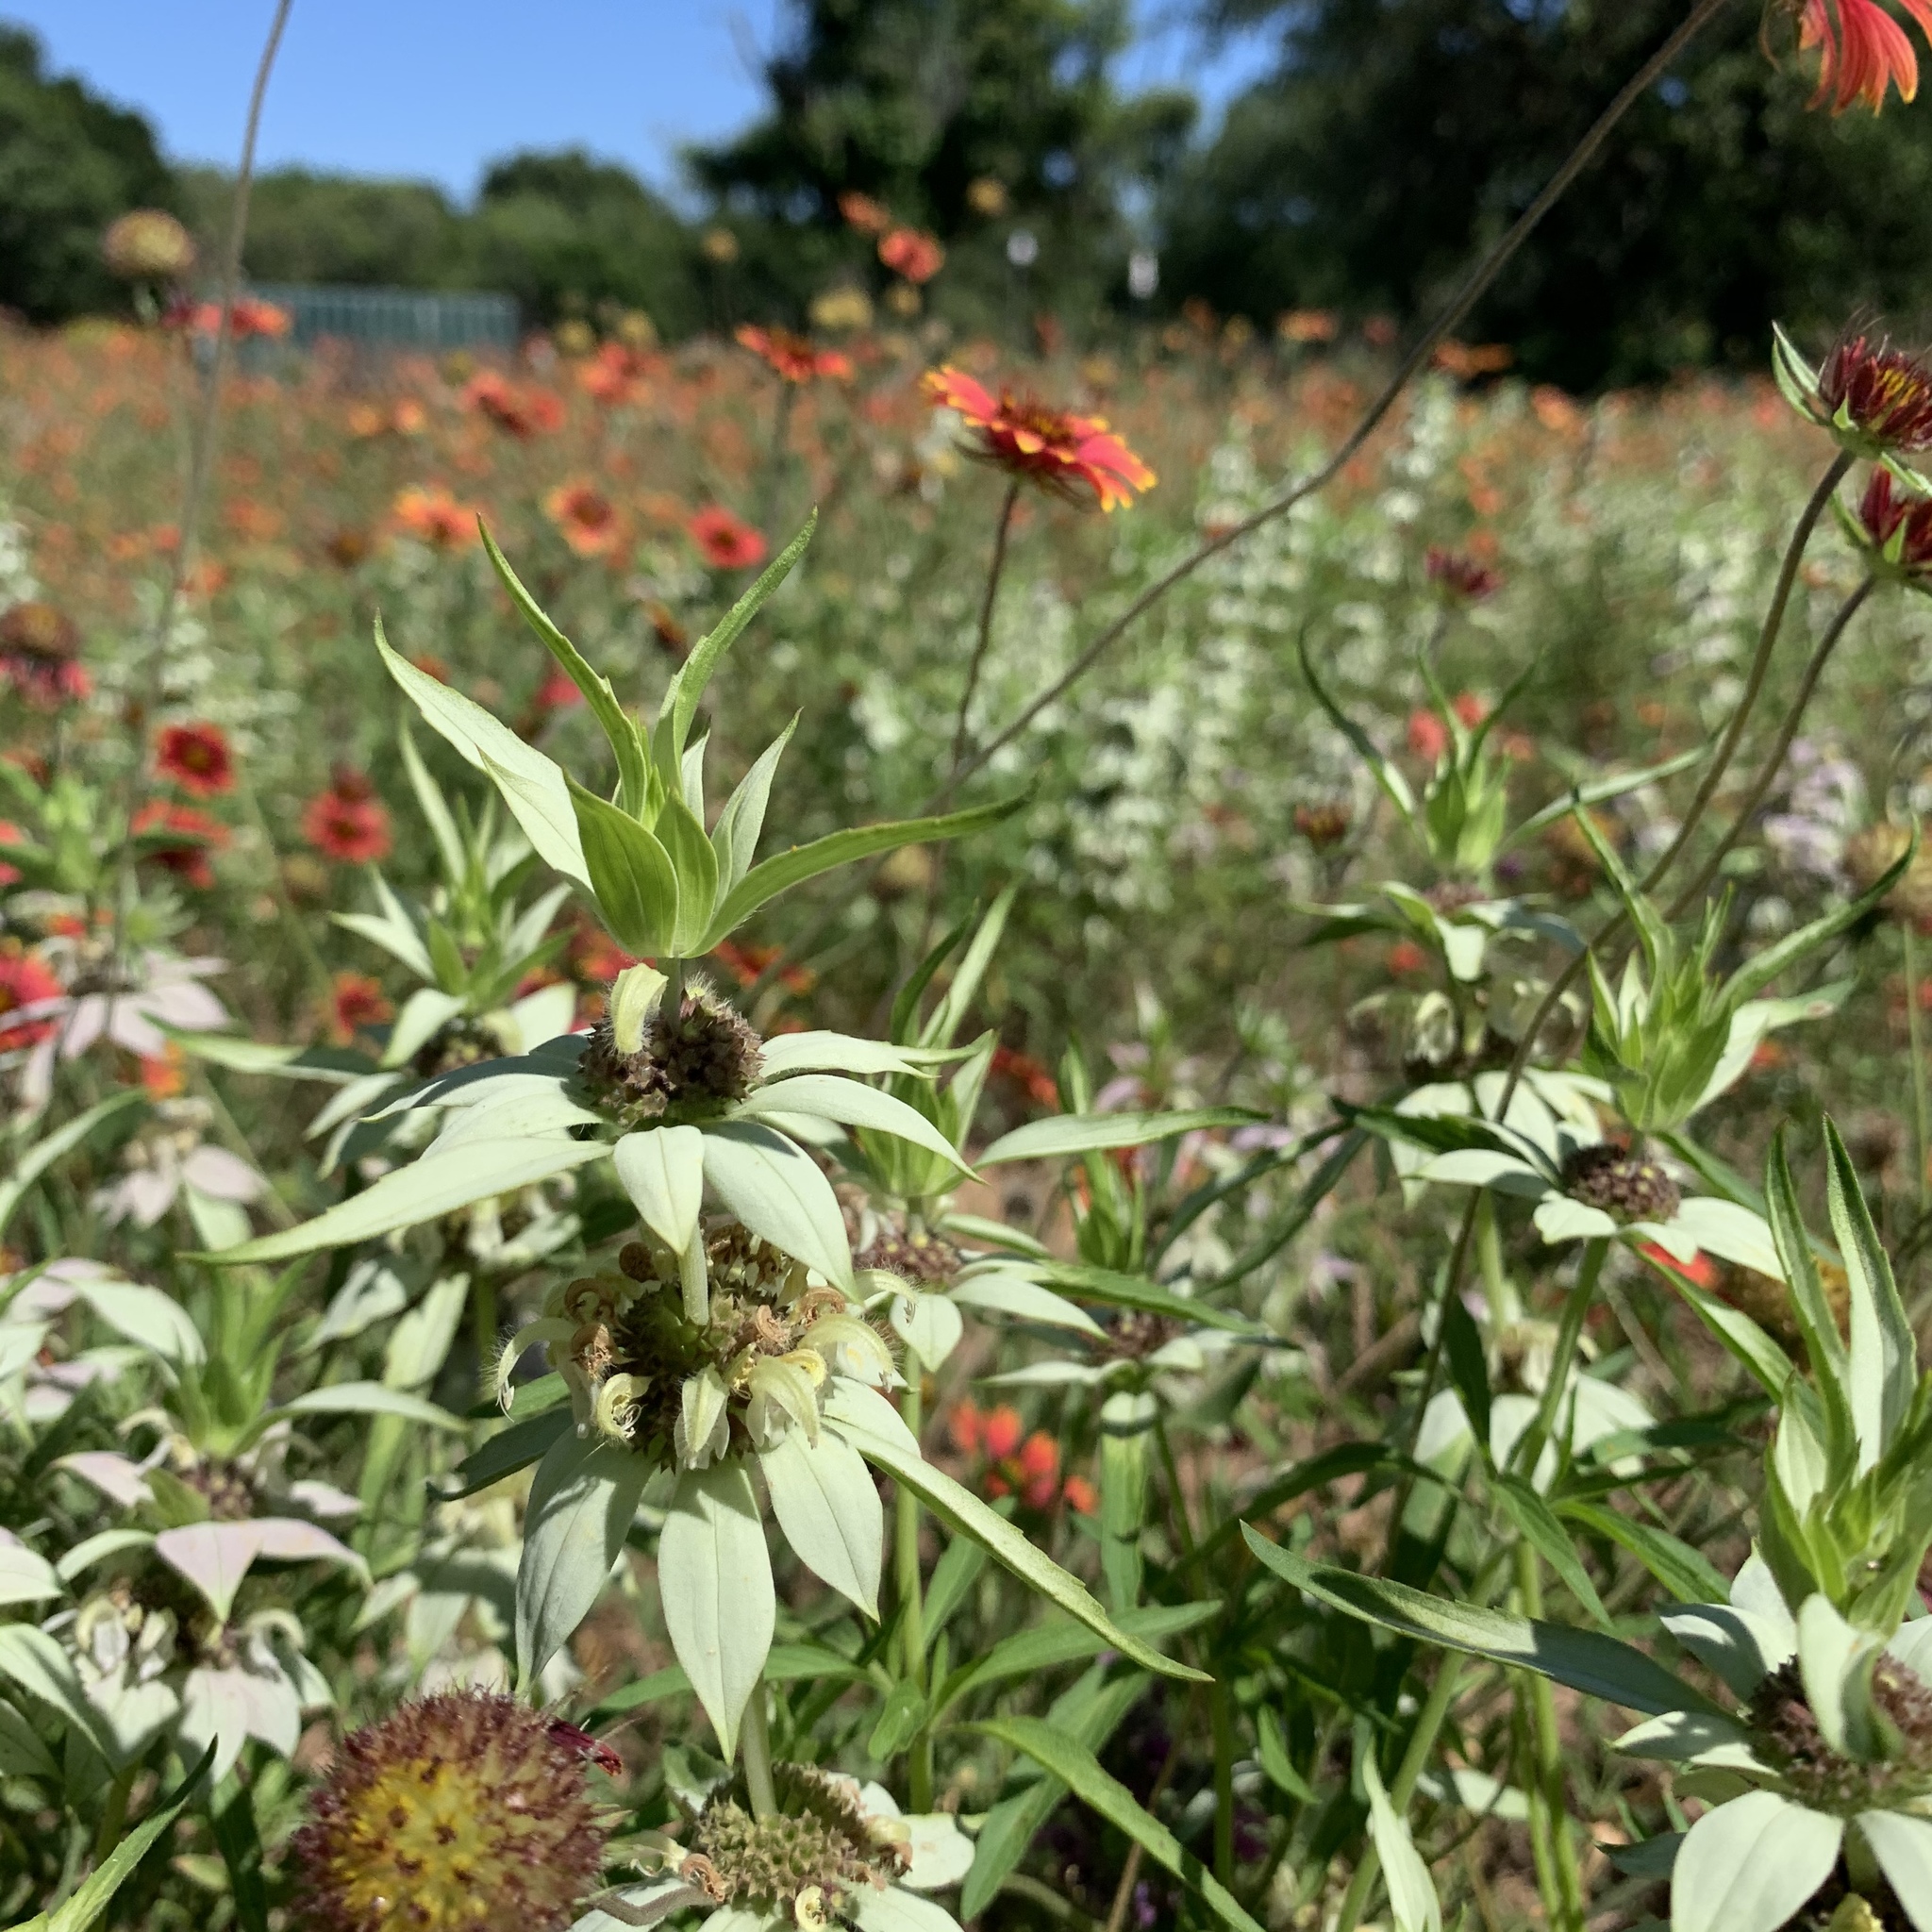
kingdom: Plantae
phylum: Tracheophyta
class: Magnoliopsida
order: Lamiales
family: Lamiaceae
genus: Monarda
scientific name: Monarda punctata
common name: Dotted monarda
